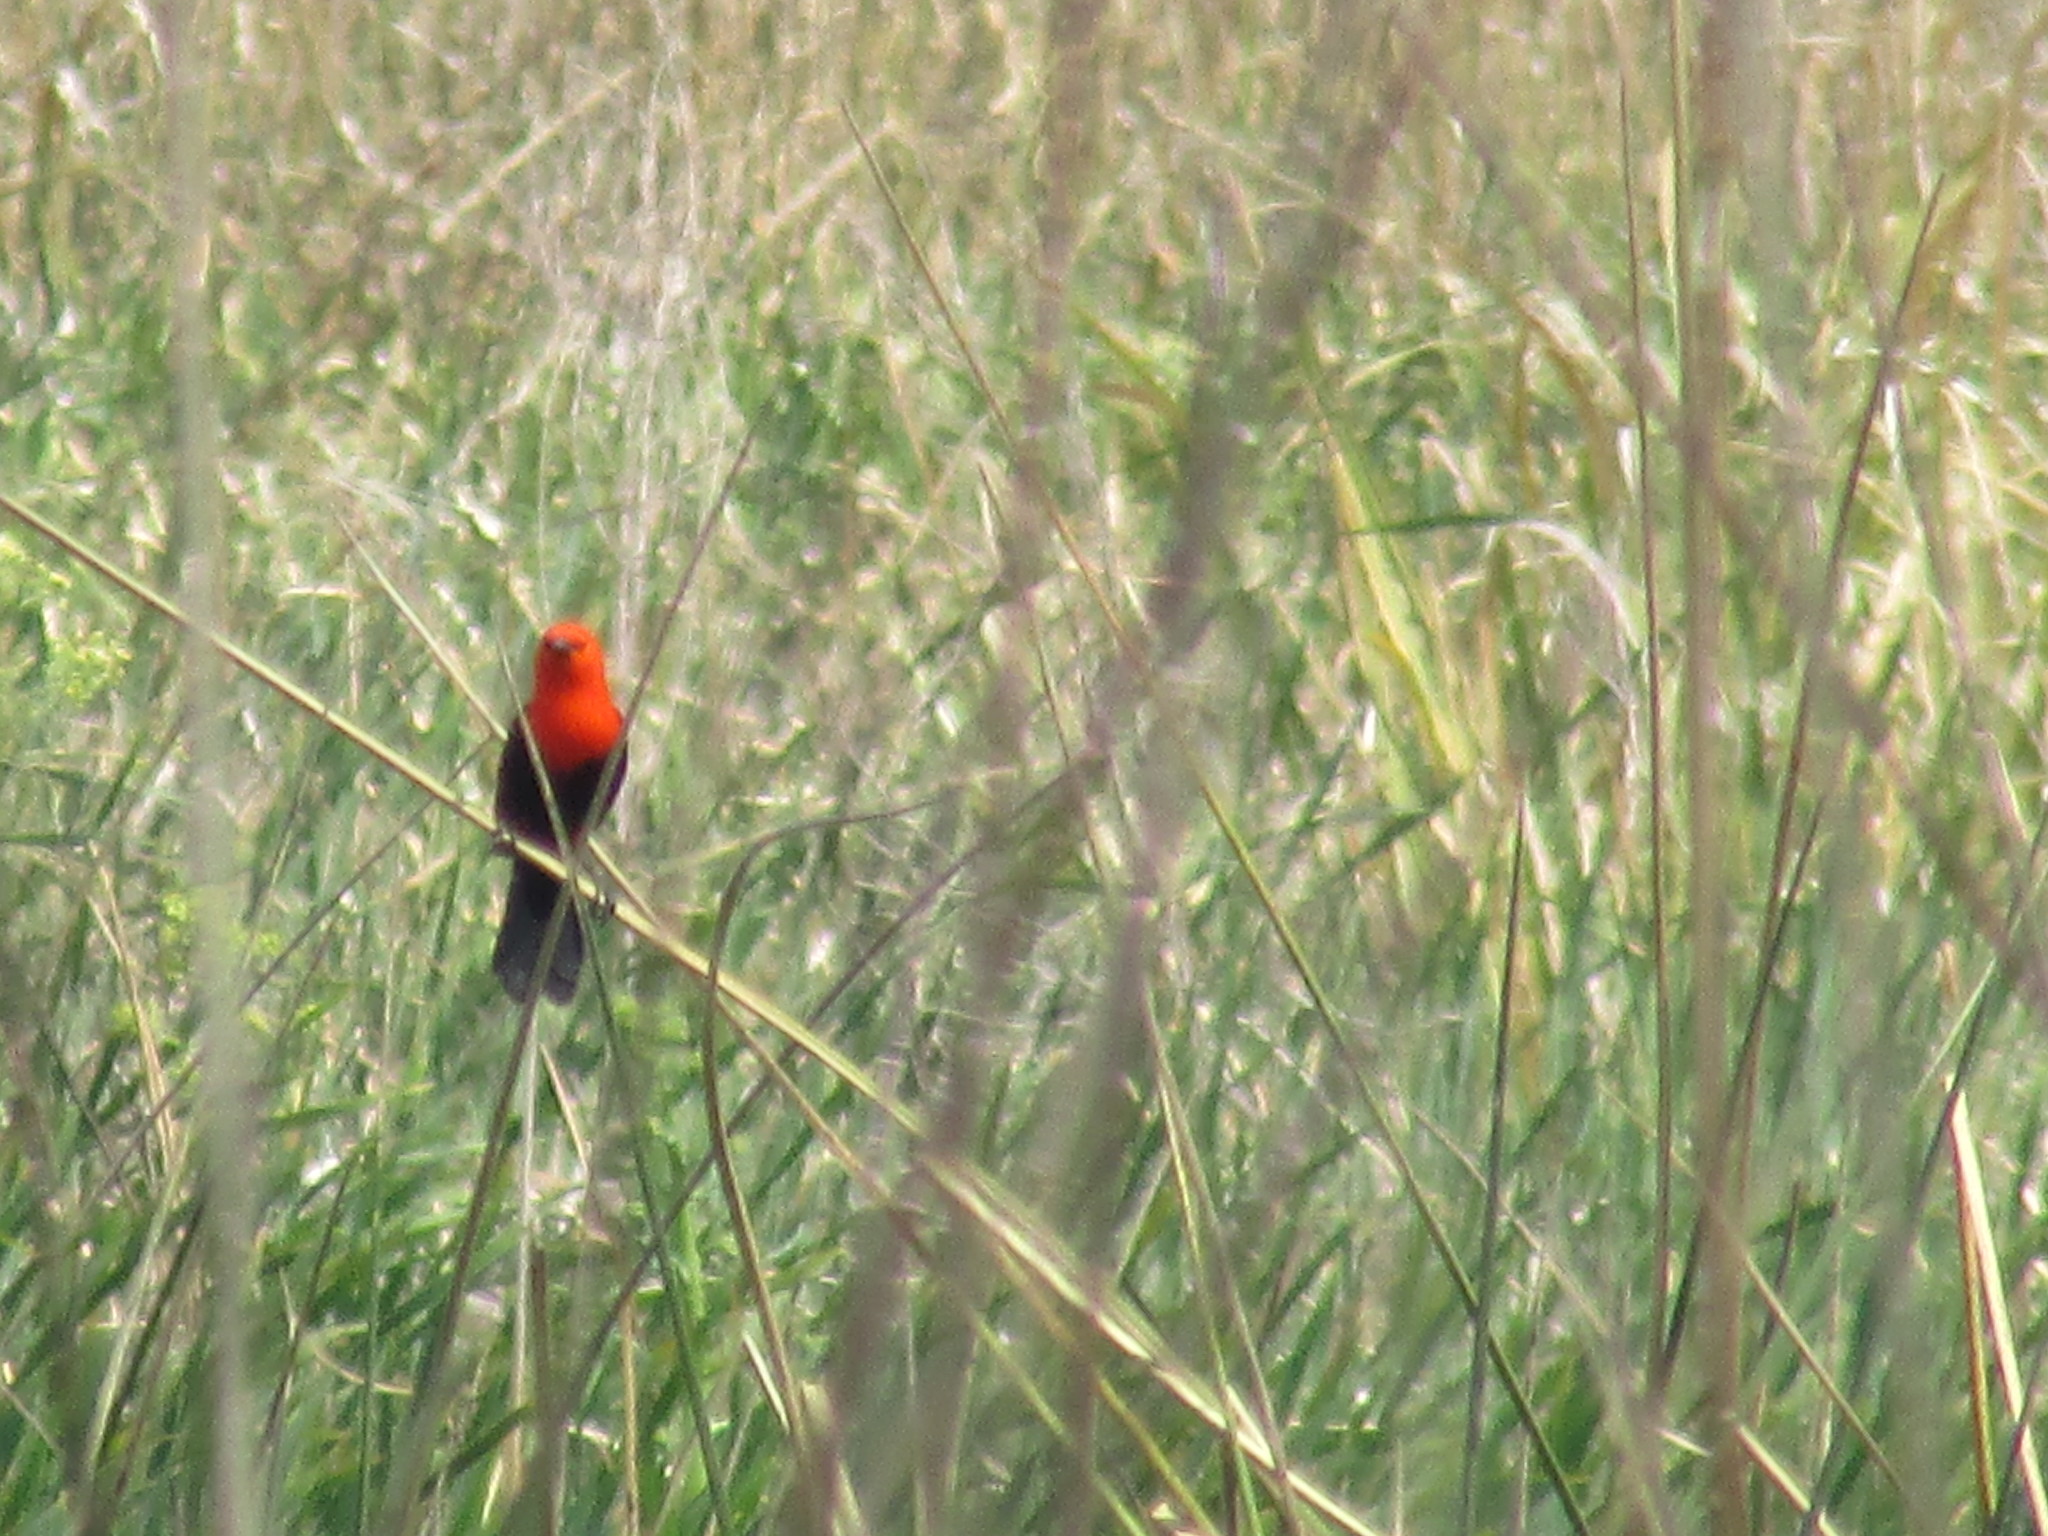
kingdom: Animalia
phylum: Chordata
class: Aves
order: Passeriformes
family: Icteridae
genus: Amblyramphus
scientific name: Amblyramphus holosericeus
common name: Scarlet-headed blackbird
